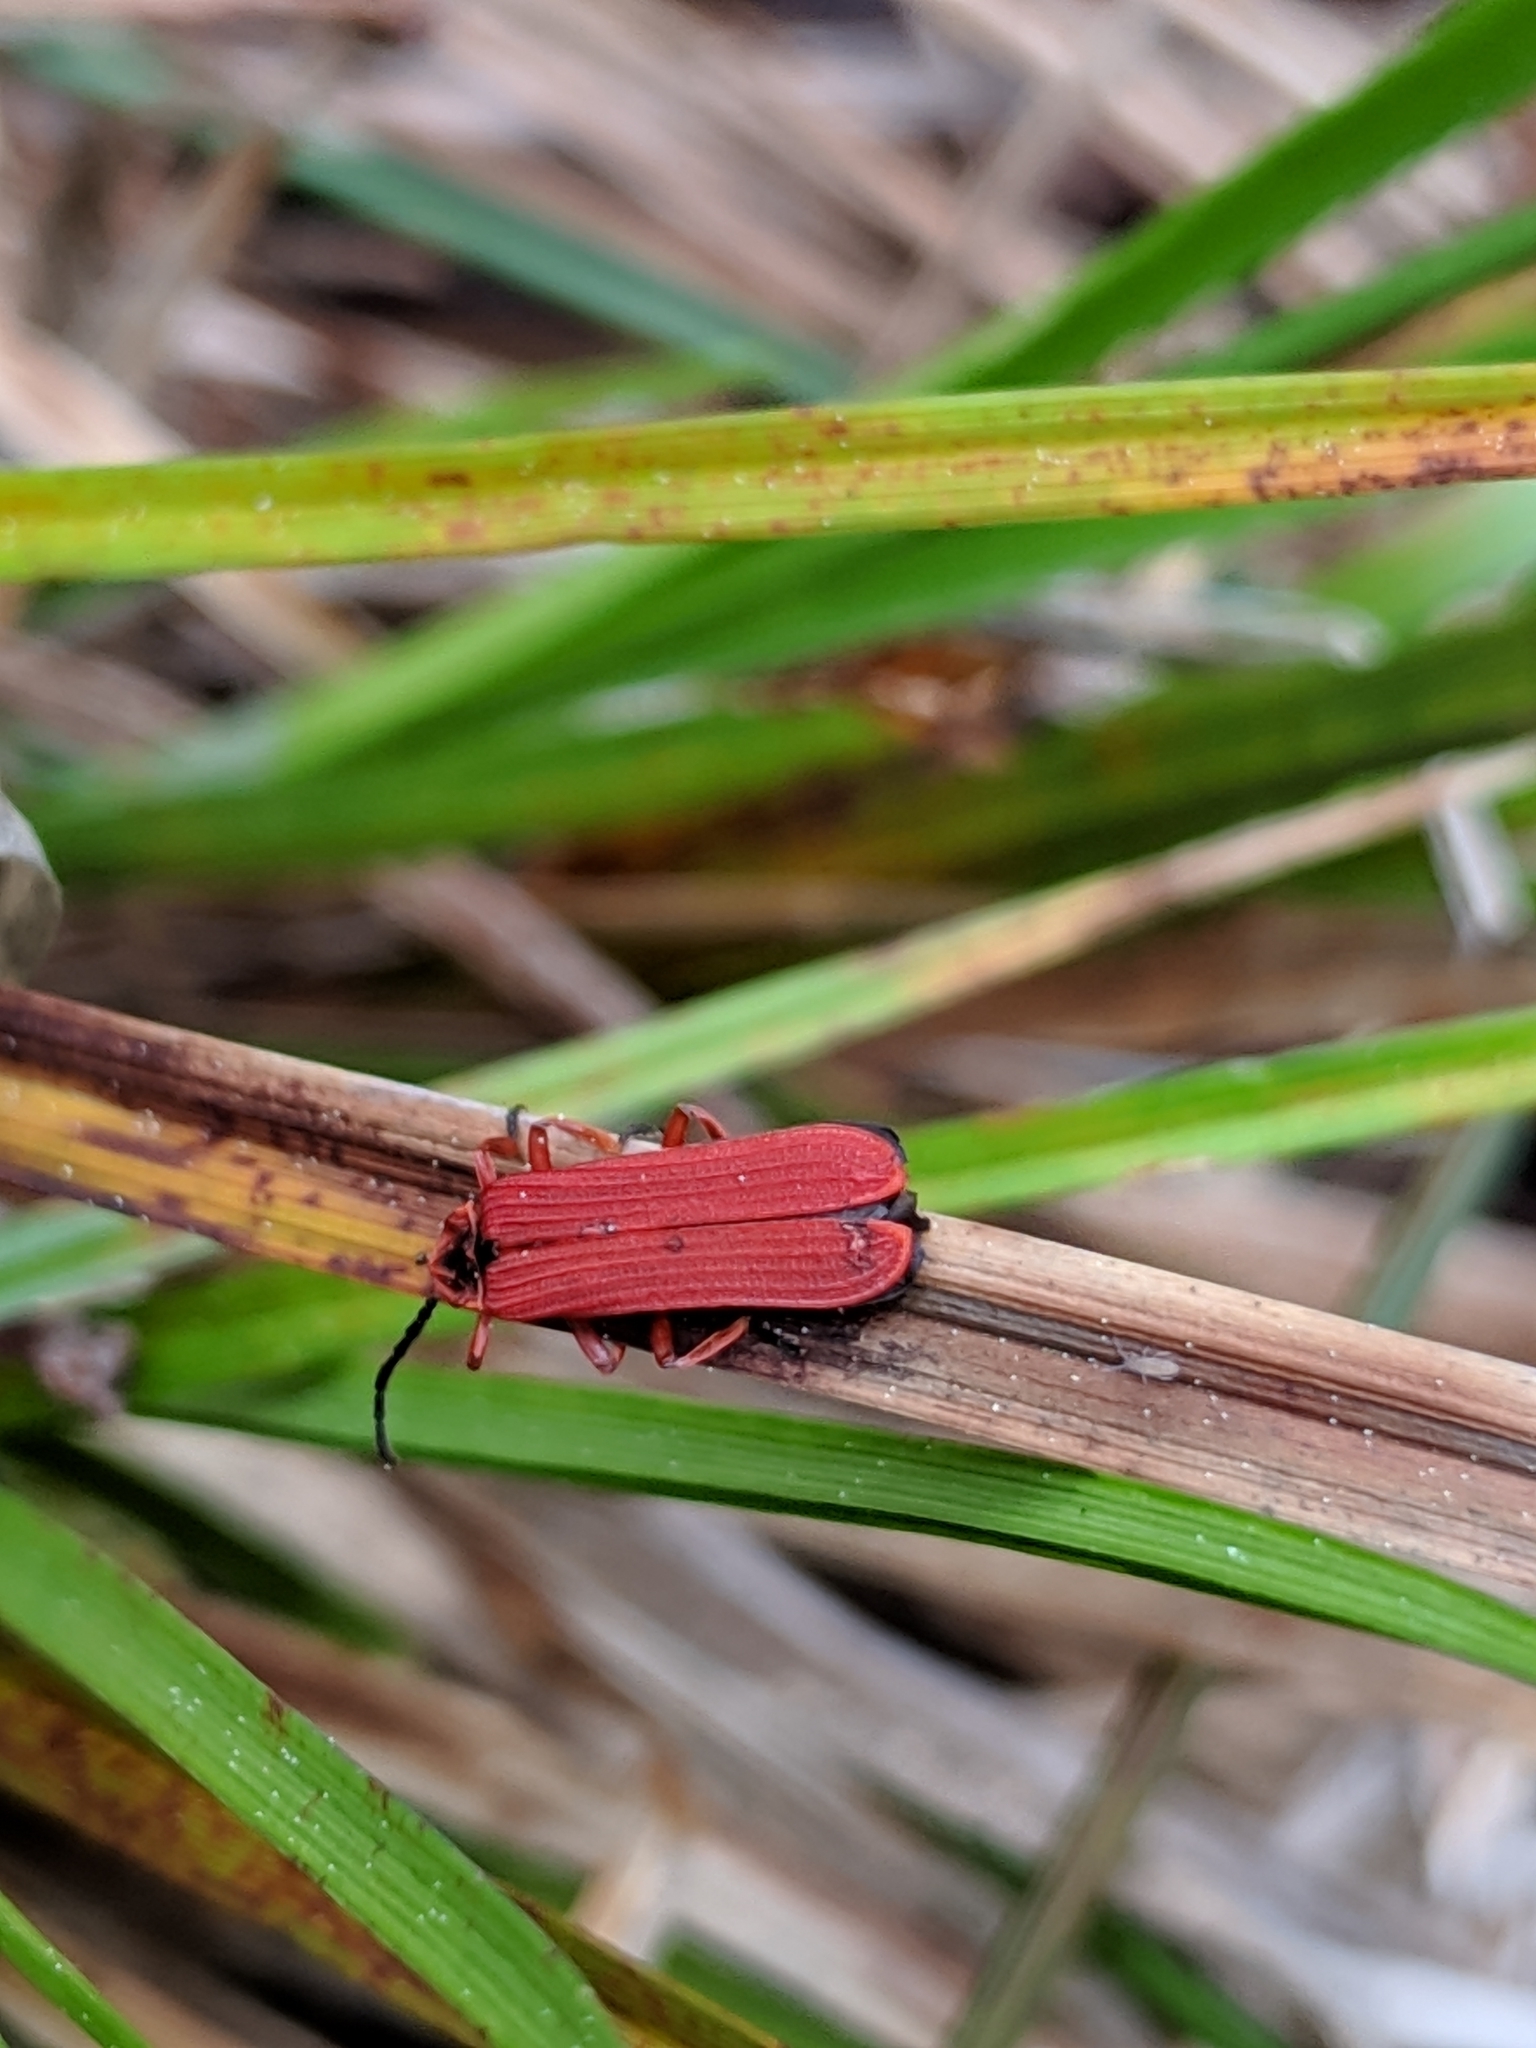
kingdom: Animalia
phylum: Arthropoda
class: Insecta
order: Coleoptera
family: Lycidae
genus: Dictyoptera
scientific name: Dictyoptera simplicipes
